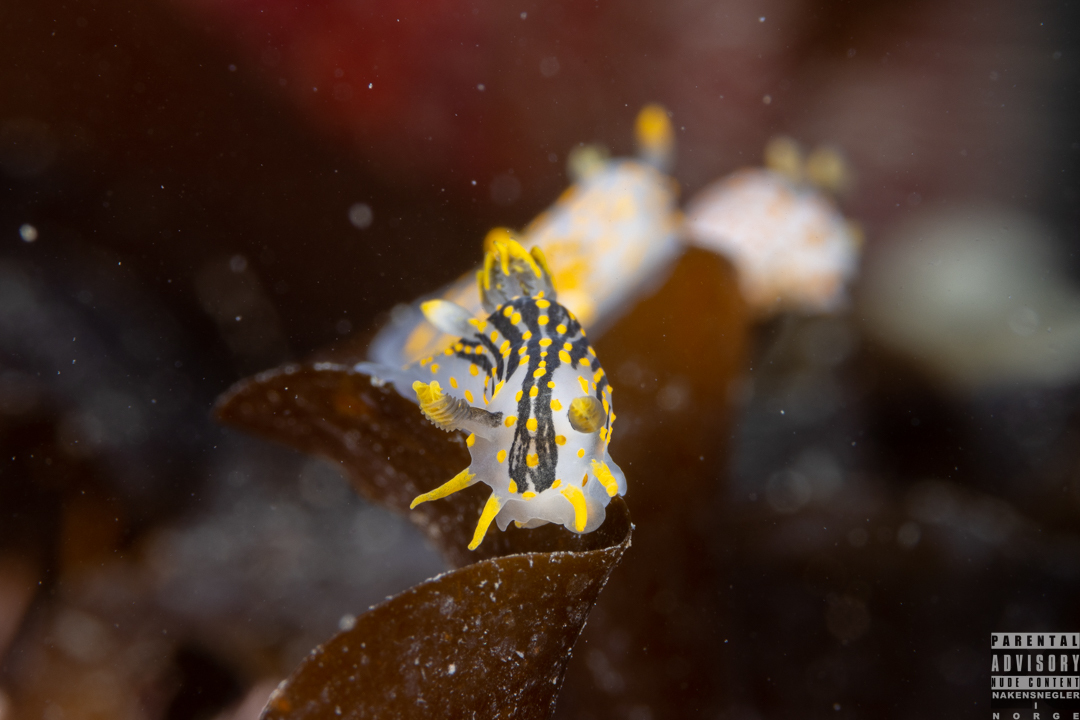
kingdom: Animalia
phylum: Mollusca
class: Gastropoda
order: Nudibranchia
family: Polyceridae
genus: Polycera
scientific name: Polycera quadrilineata
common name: Four-striped polycera
